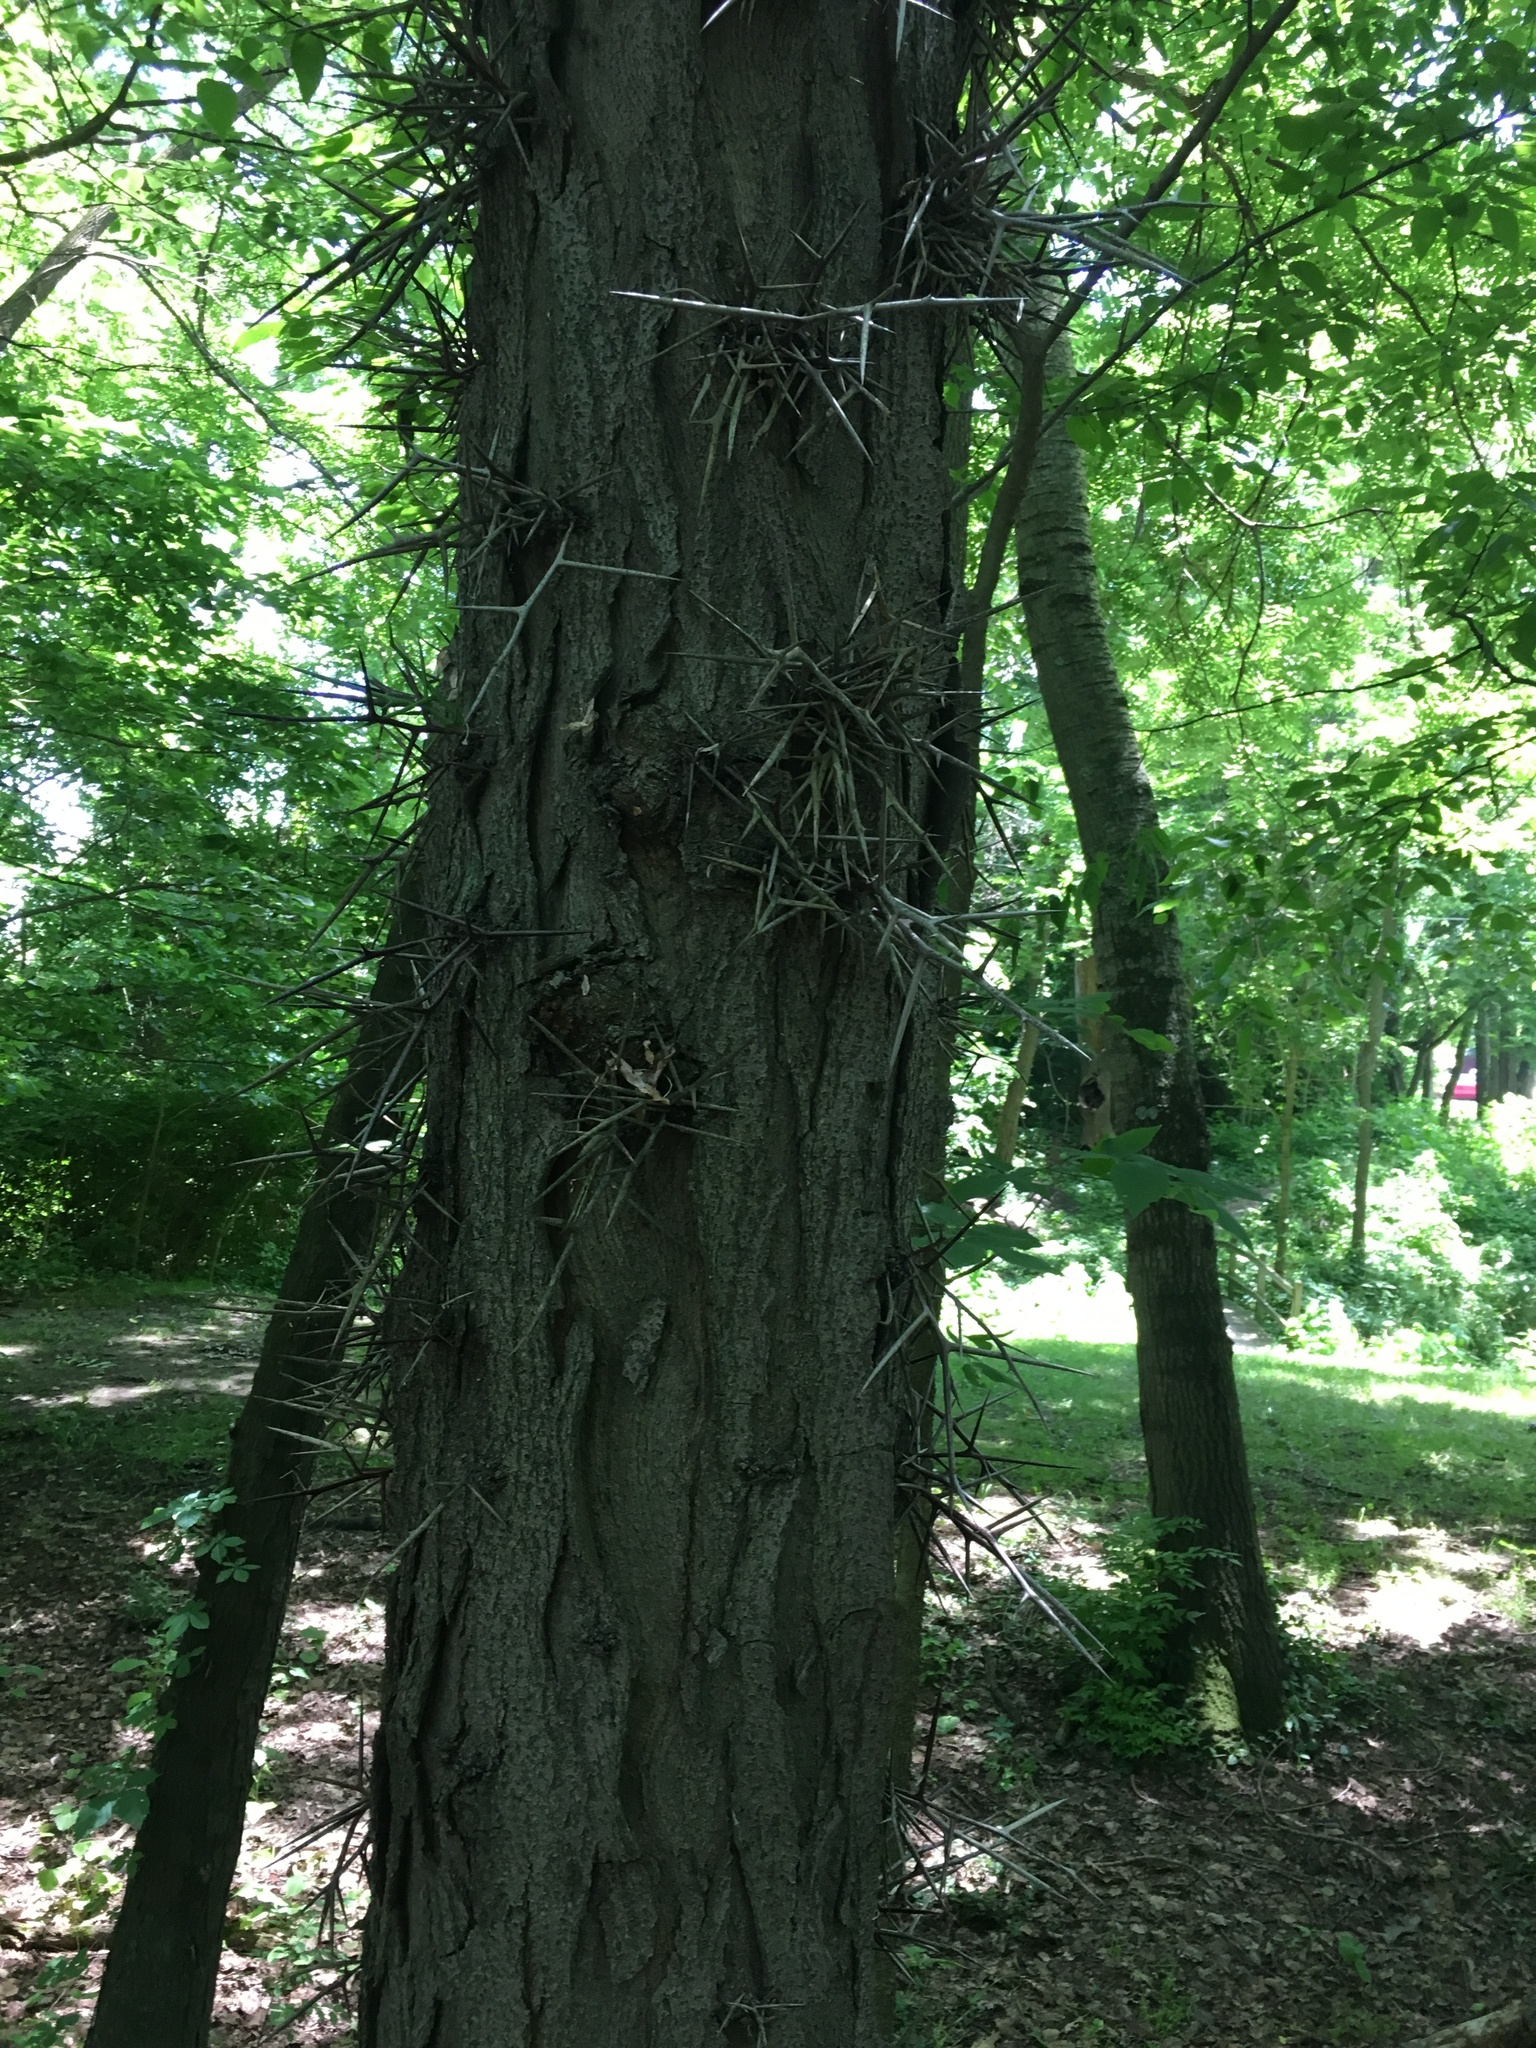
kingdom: Plantae
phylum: Tracheophyta
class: Magnoliopsida
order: Fabales
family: Fabaceae
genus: Gleditsia
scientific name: Gleditsia triacanthos
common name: Common honeylocust
